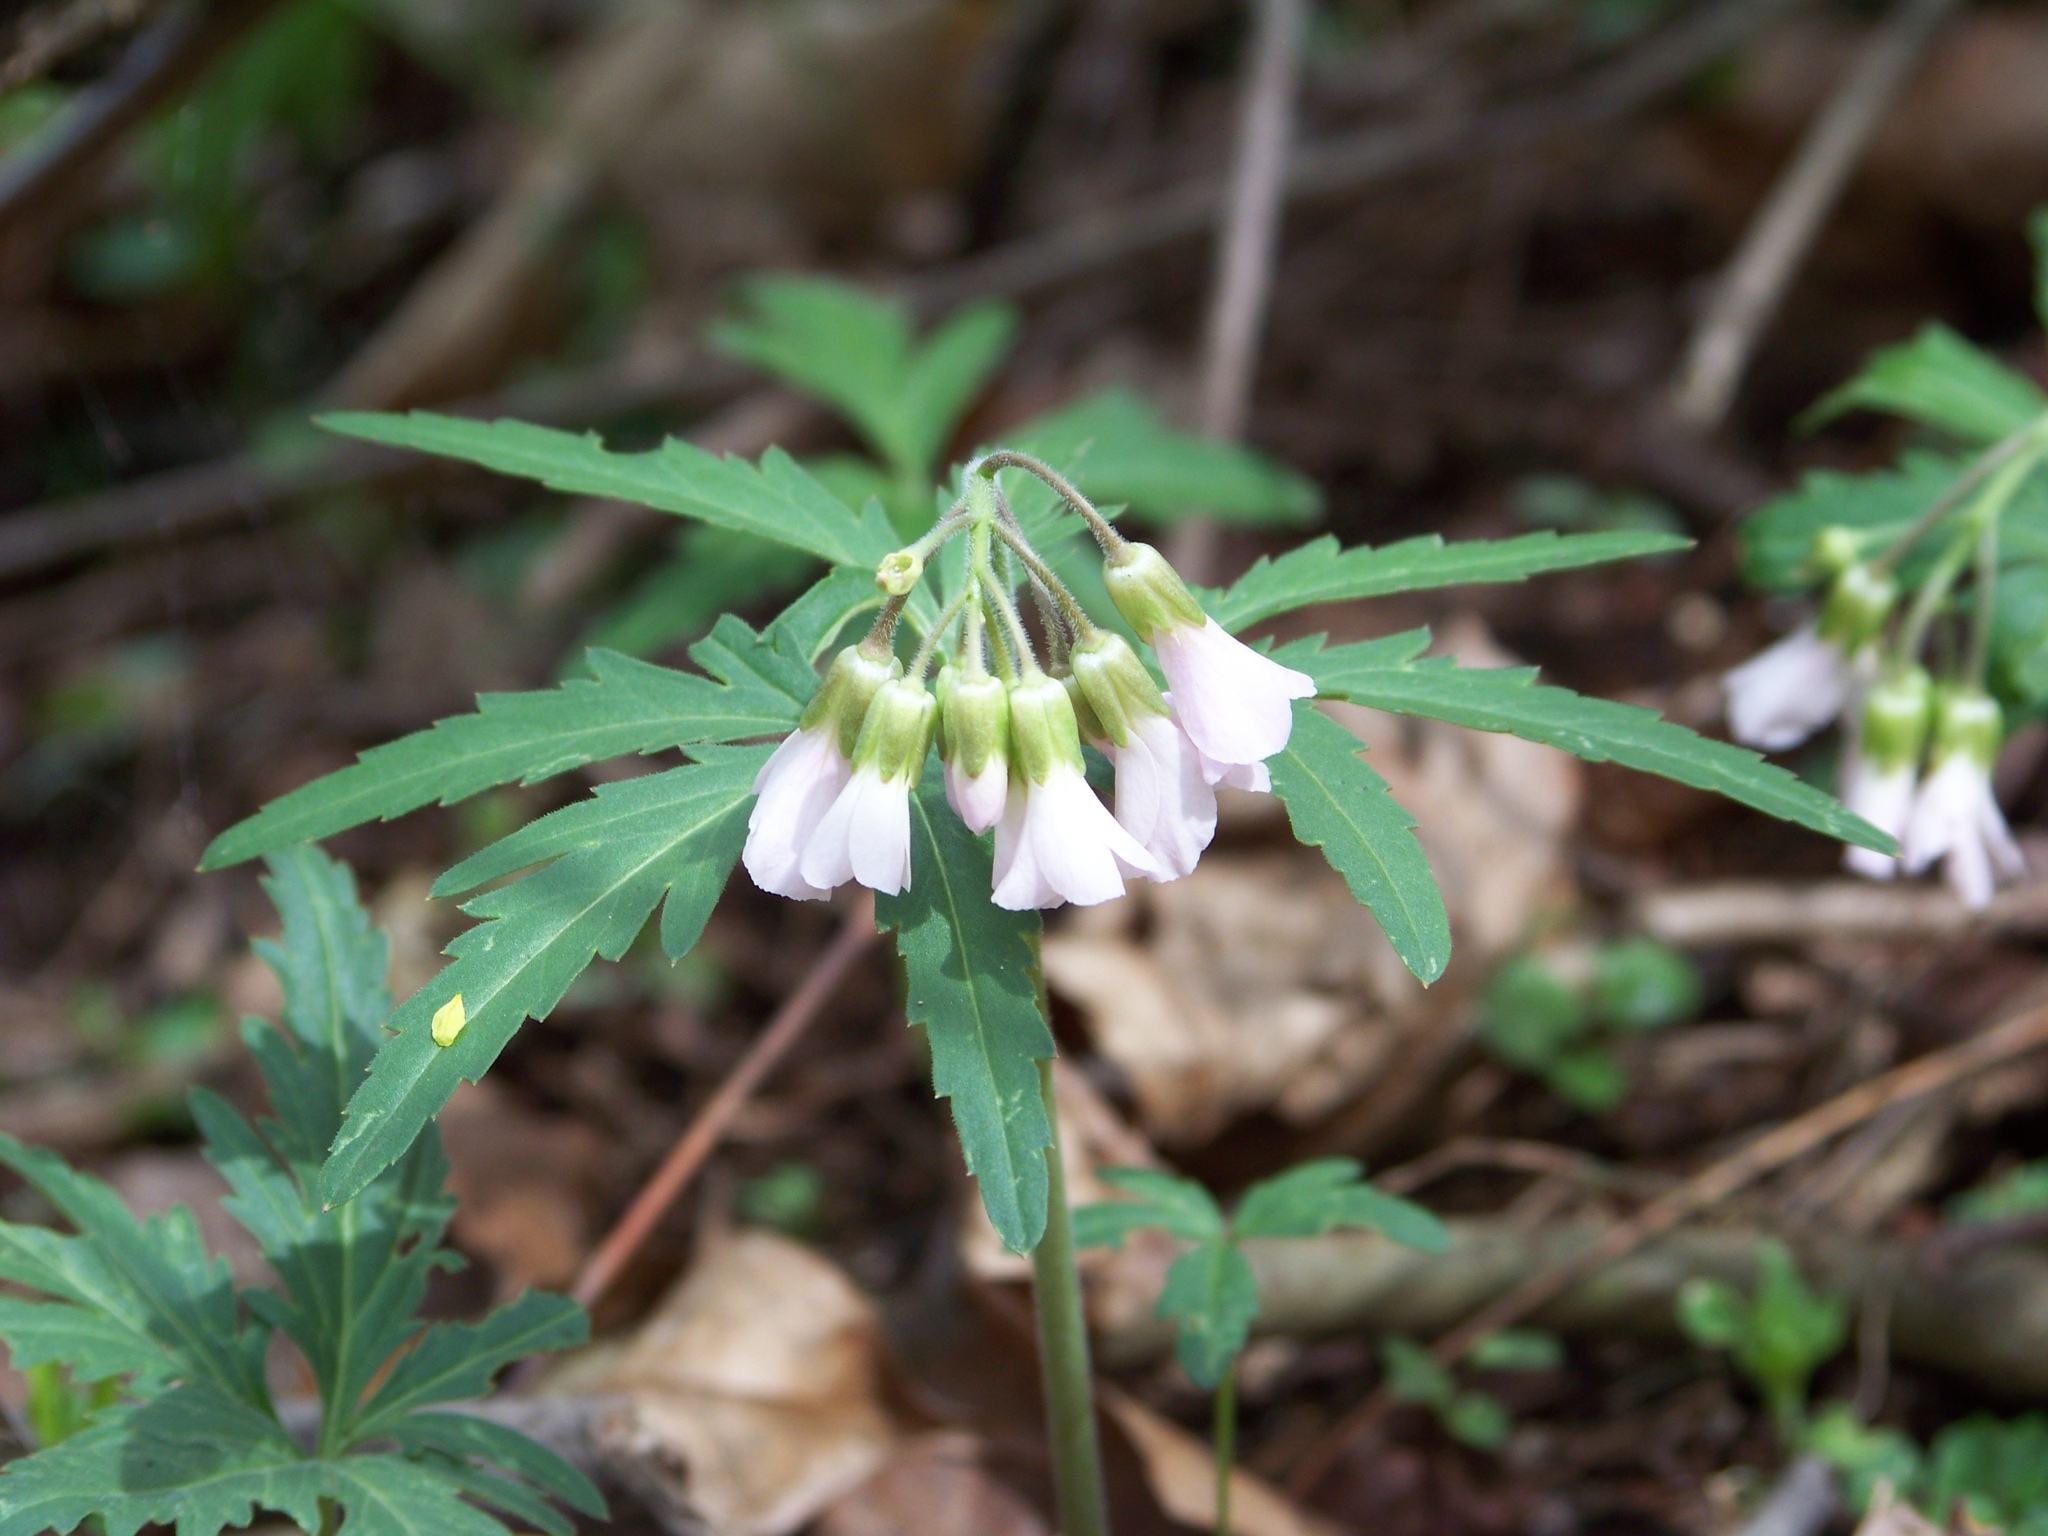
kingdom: Plantae
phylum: Tracheophyta
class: Magnoliopsida
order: Brassicales
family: Brassicaceae
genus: Cardamine
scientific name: Cardamine concatenata
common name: Cut-leaf toothcup
